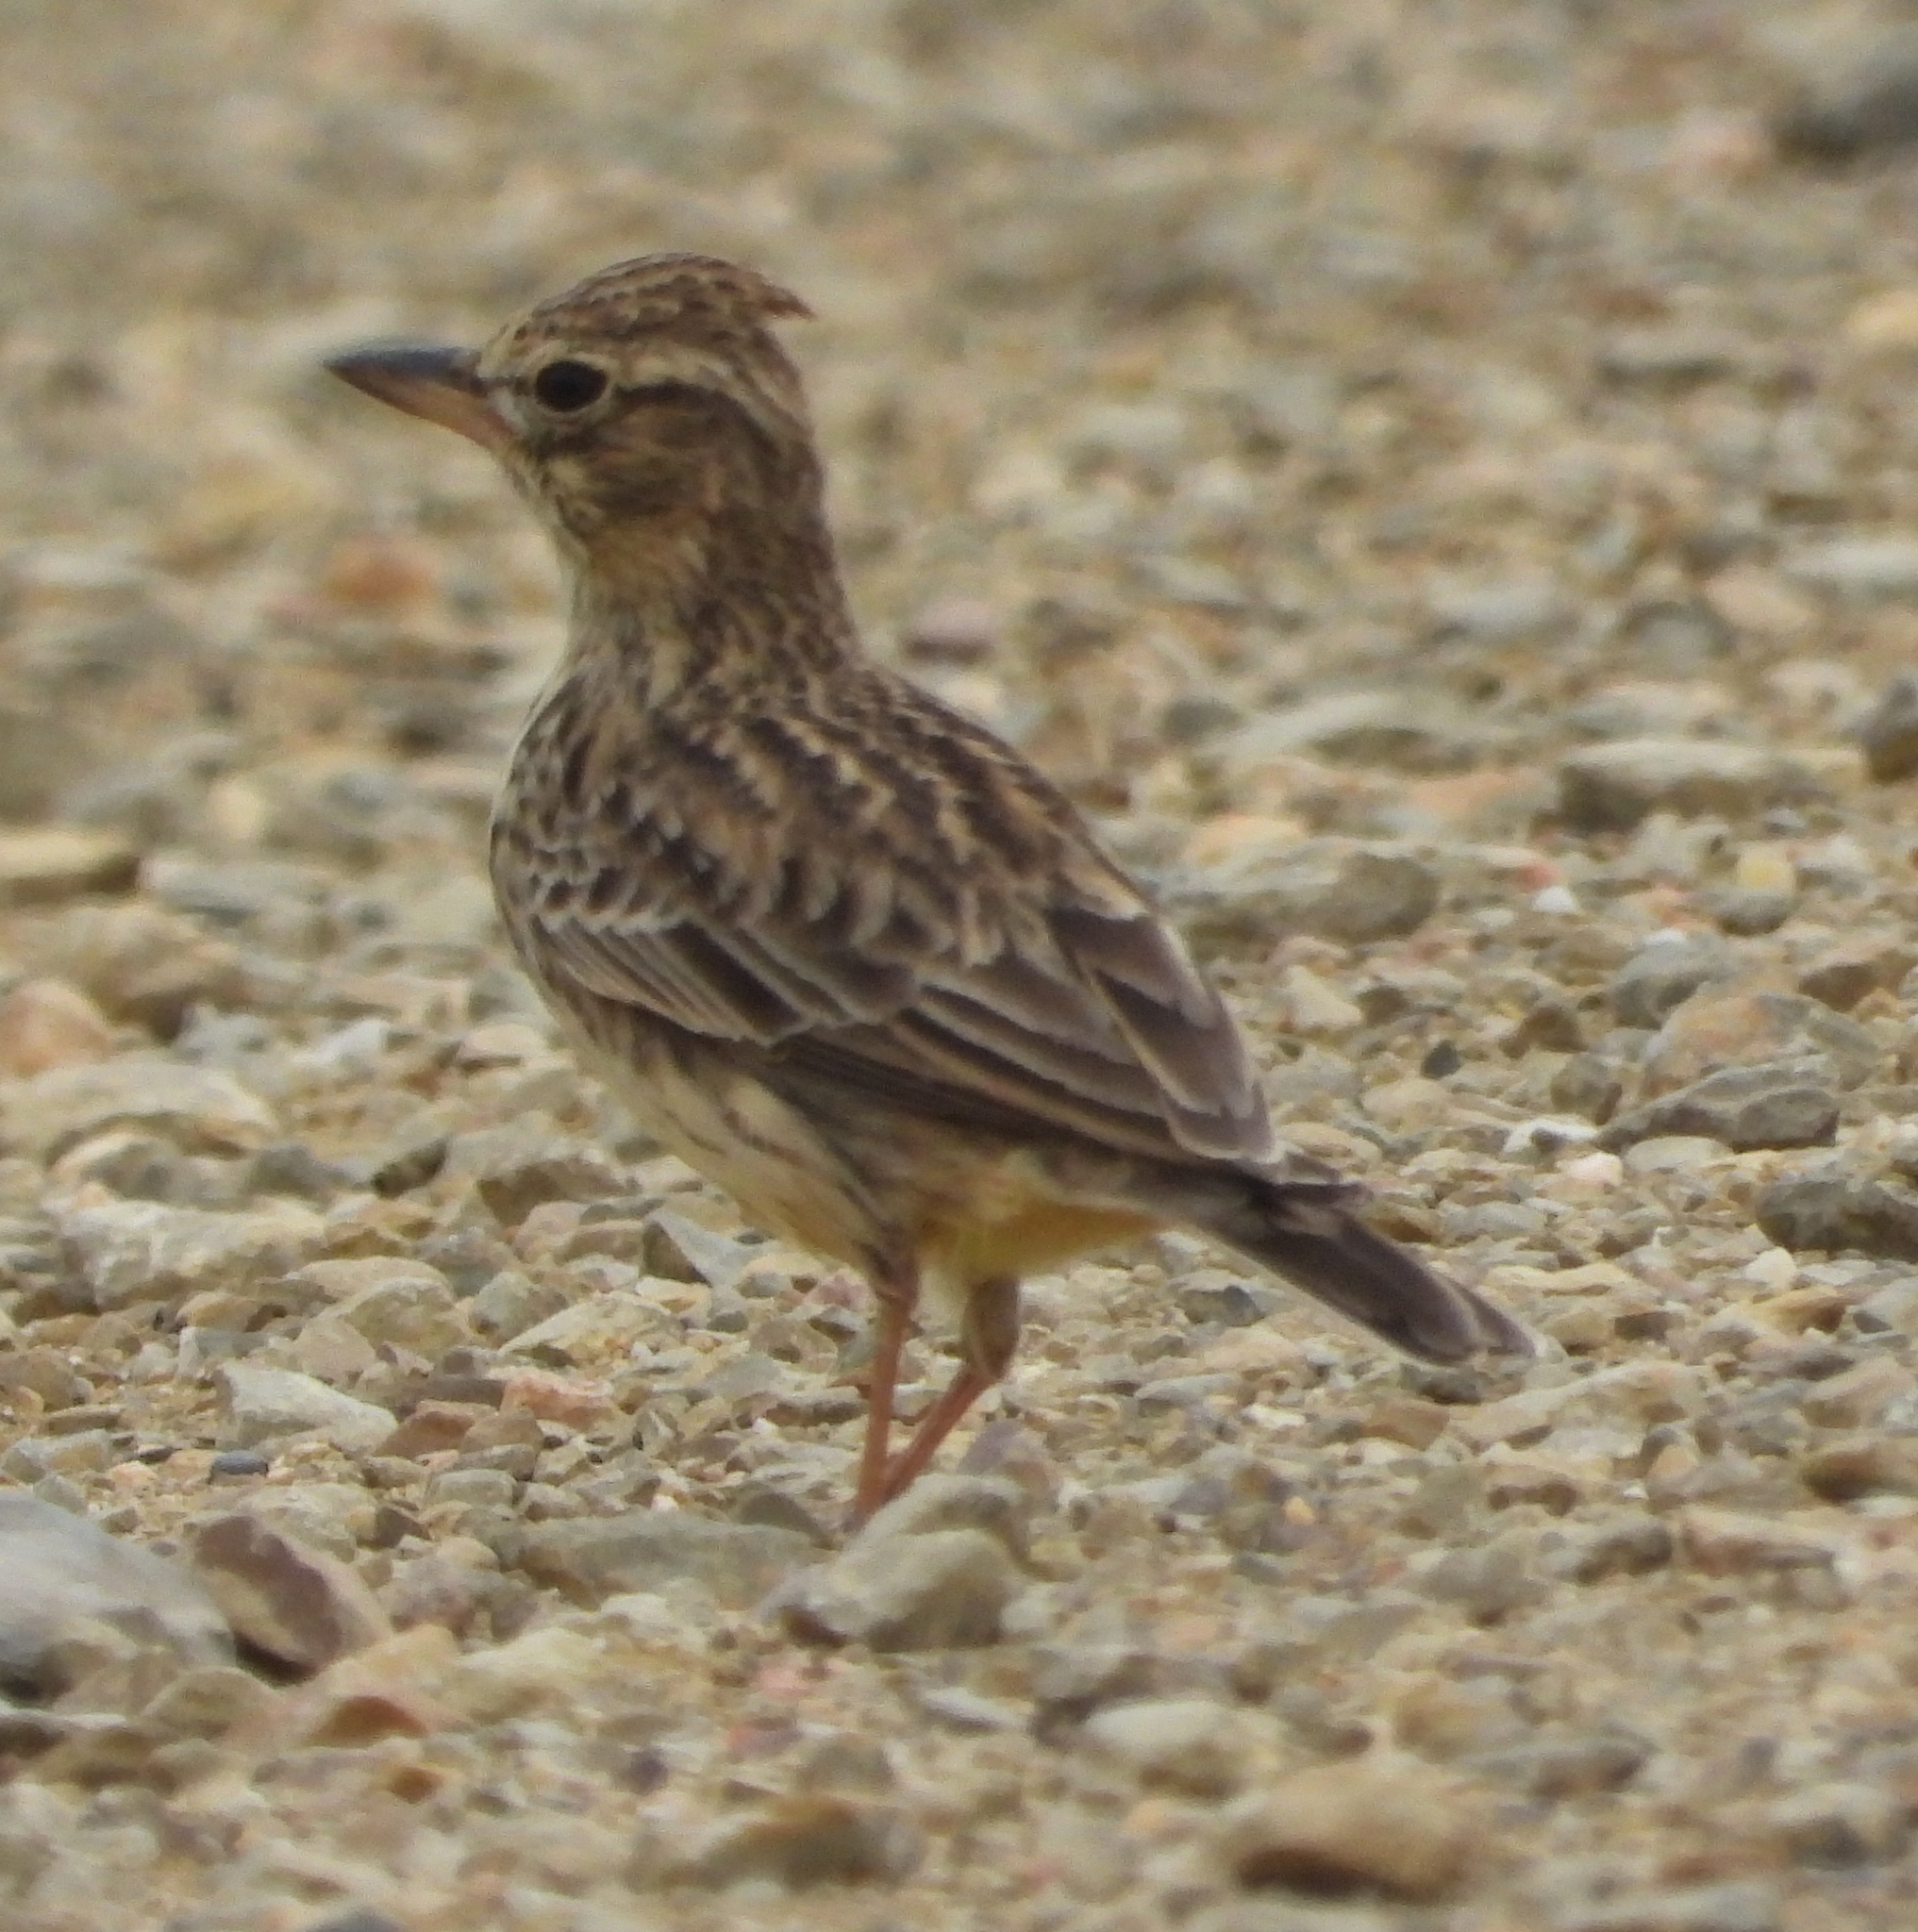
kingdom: Animalia
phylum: Chordata
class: Aves
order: Passeriformes
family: Alaudidae
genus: Galerida
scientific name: Galerida magnirostris
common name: Large-billed lark
